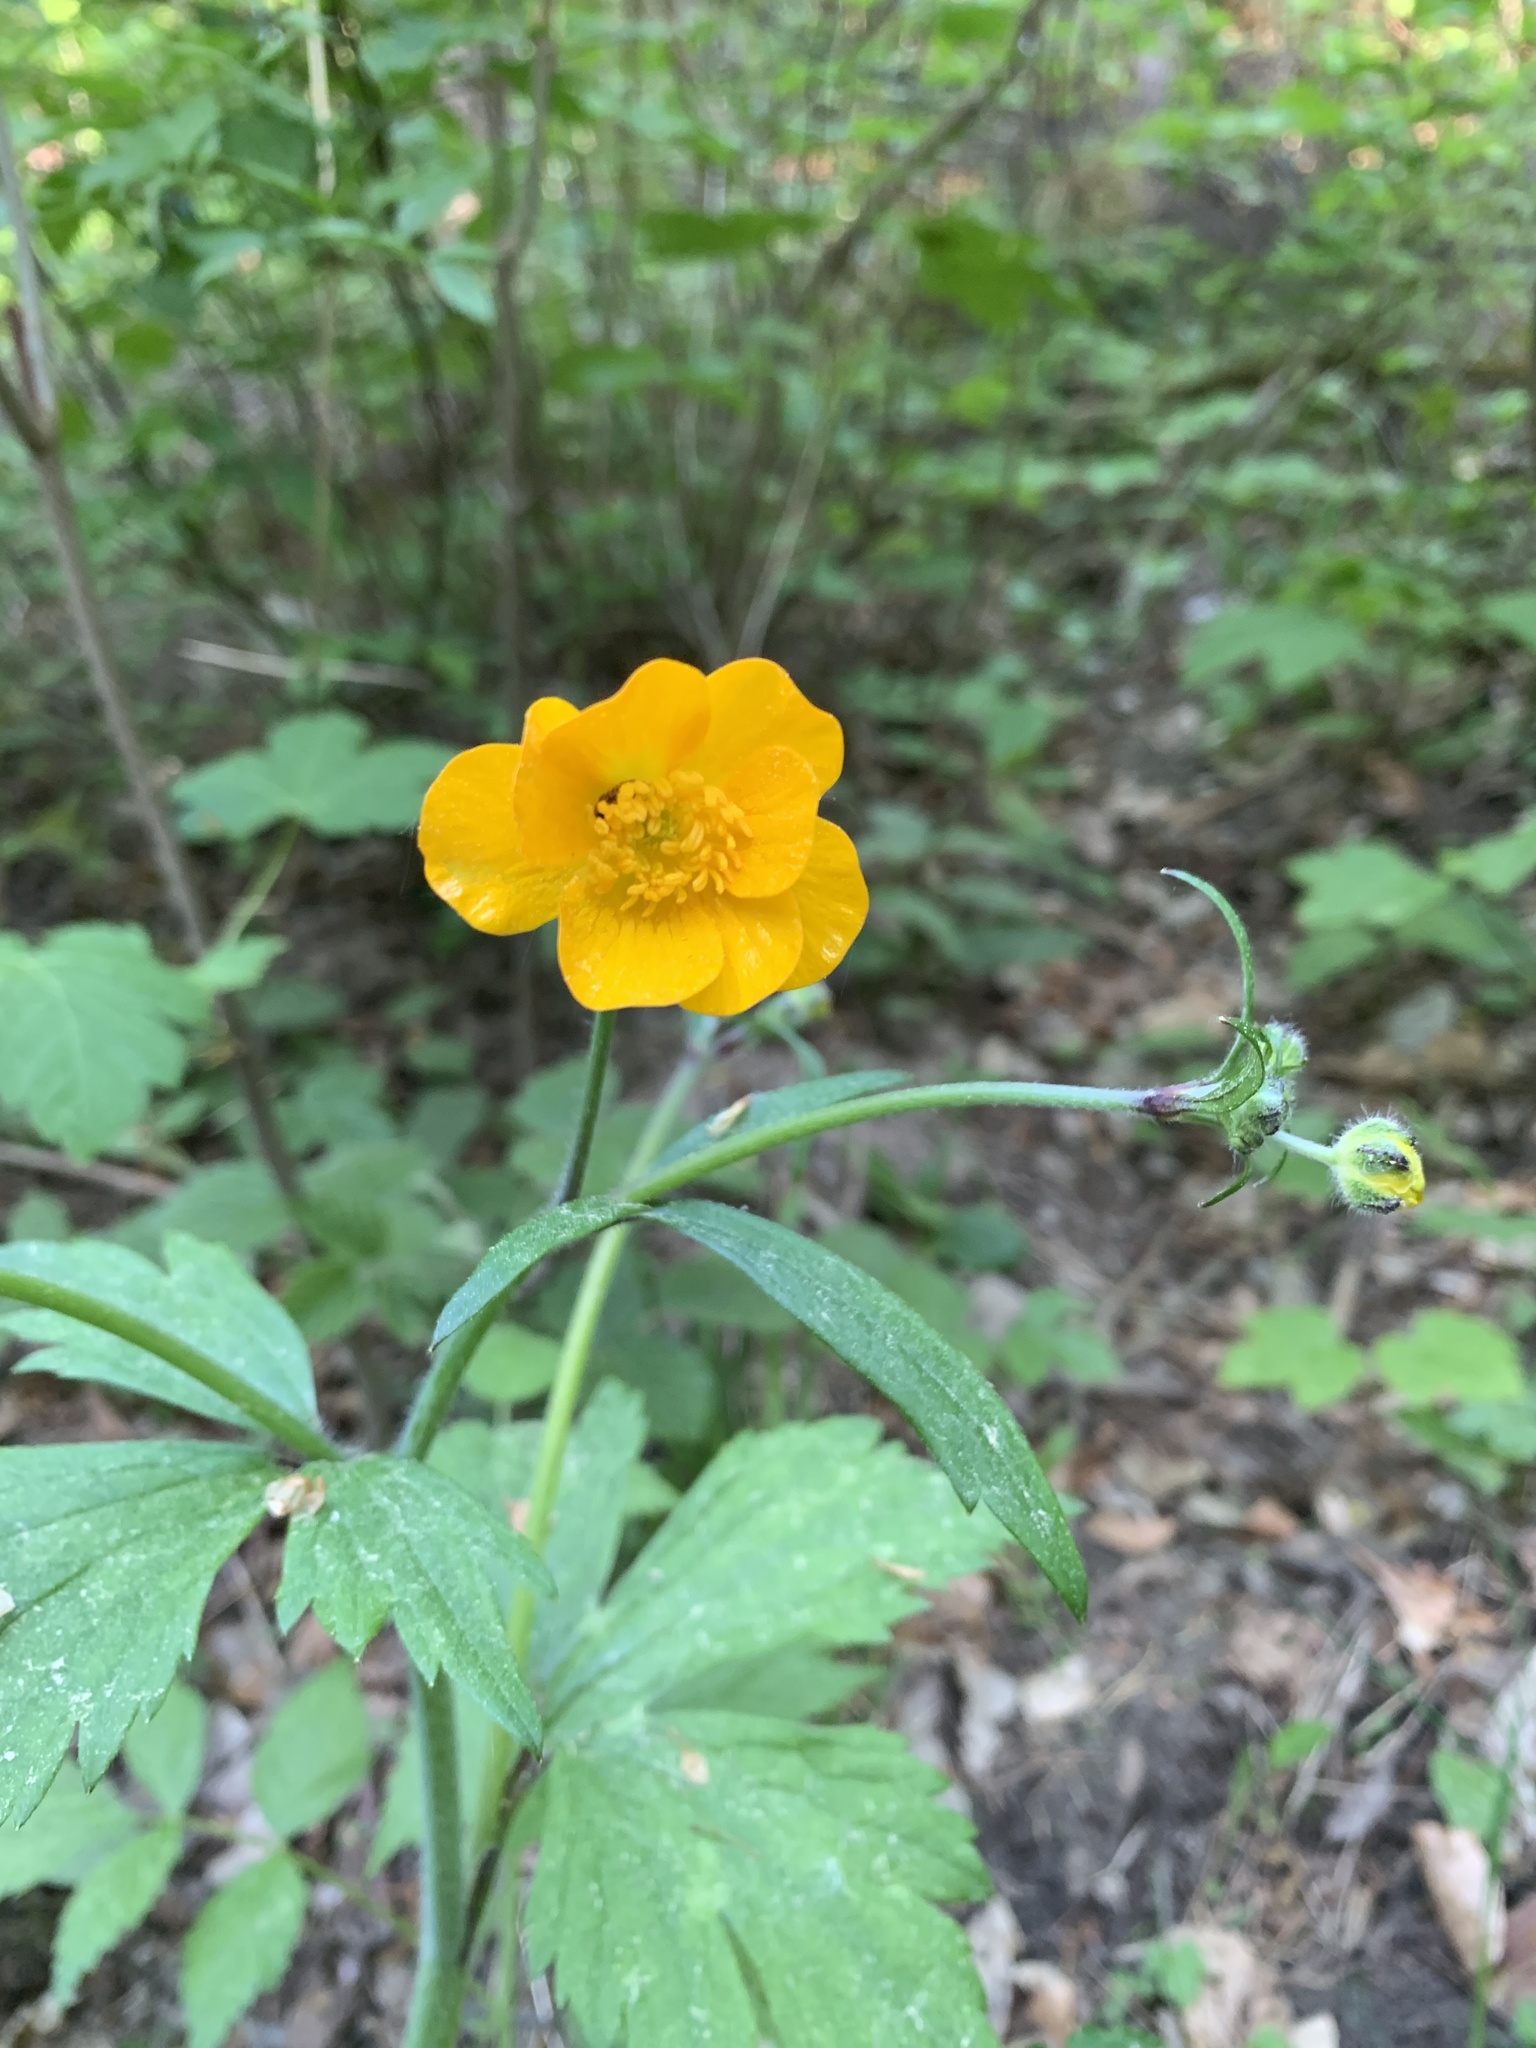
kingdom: Plantae
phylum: Tracheophyta
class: Magnoliopsida
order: Ranunculales
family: Ranunculaceae
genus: Ranunculus
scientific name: Ranunculus lanuginosus
